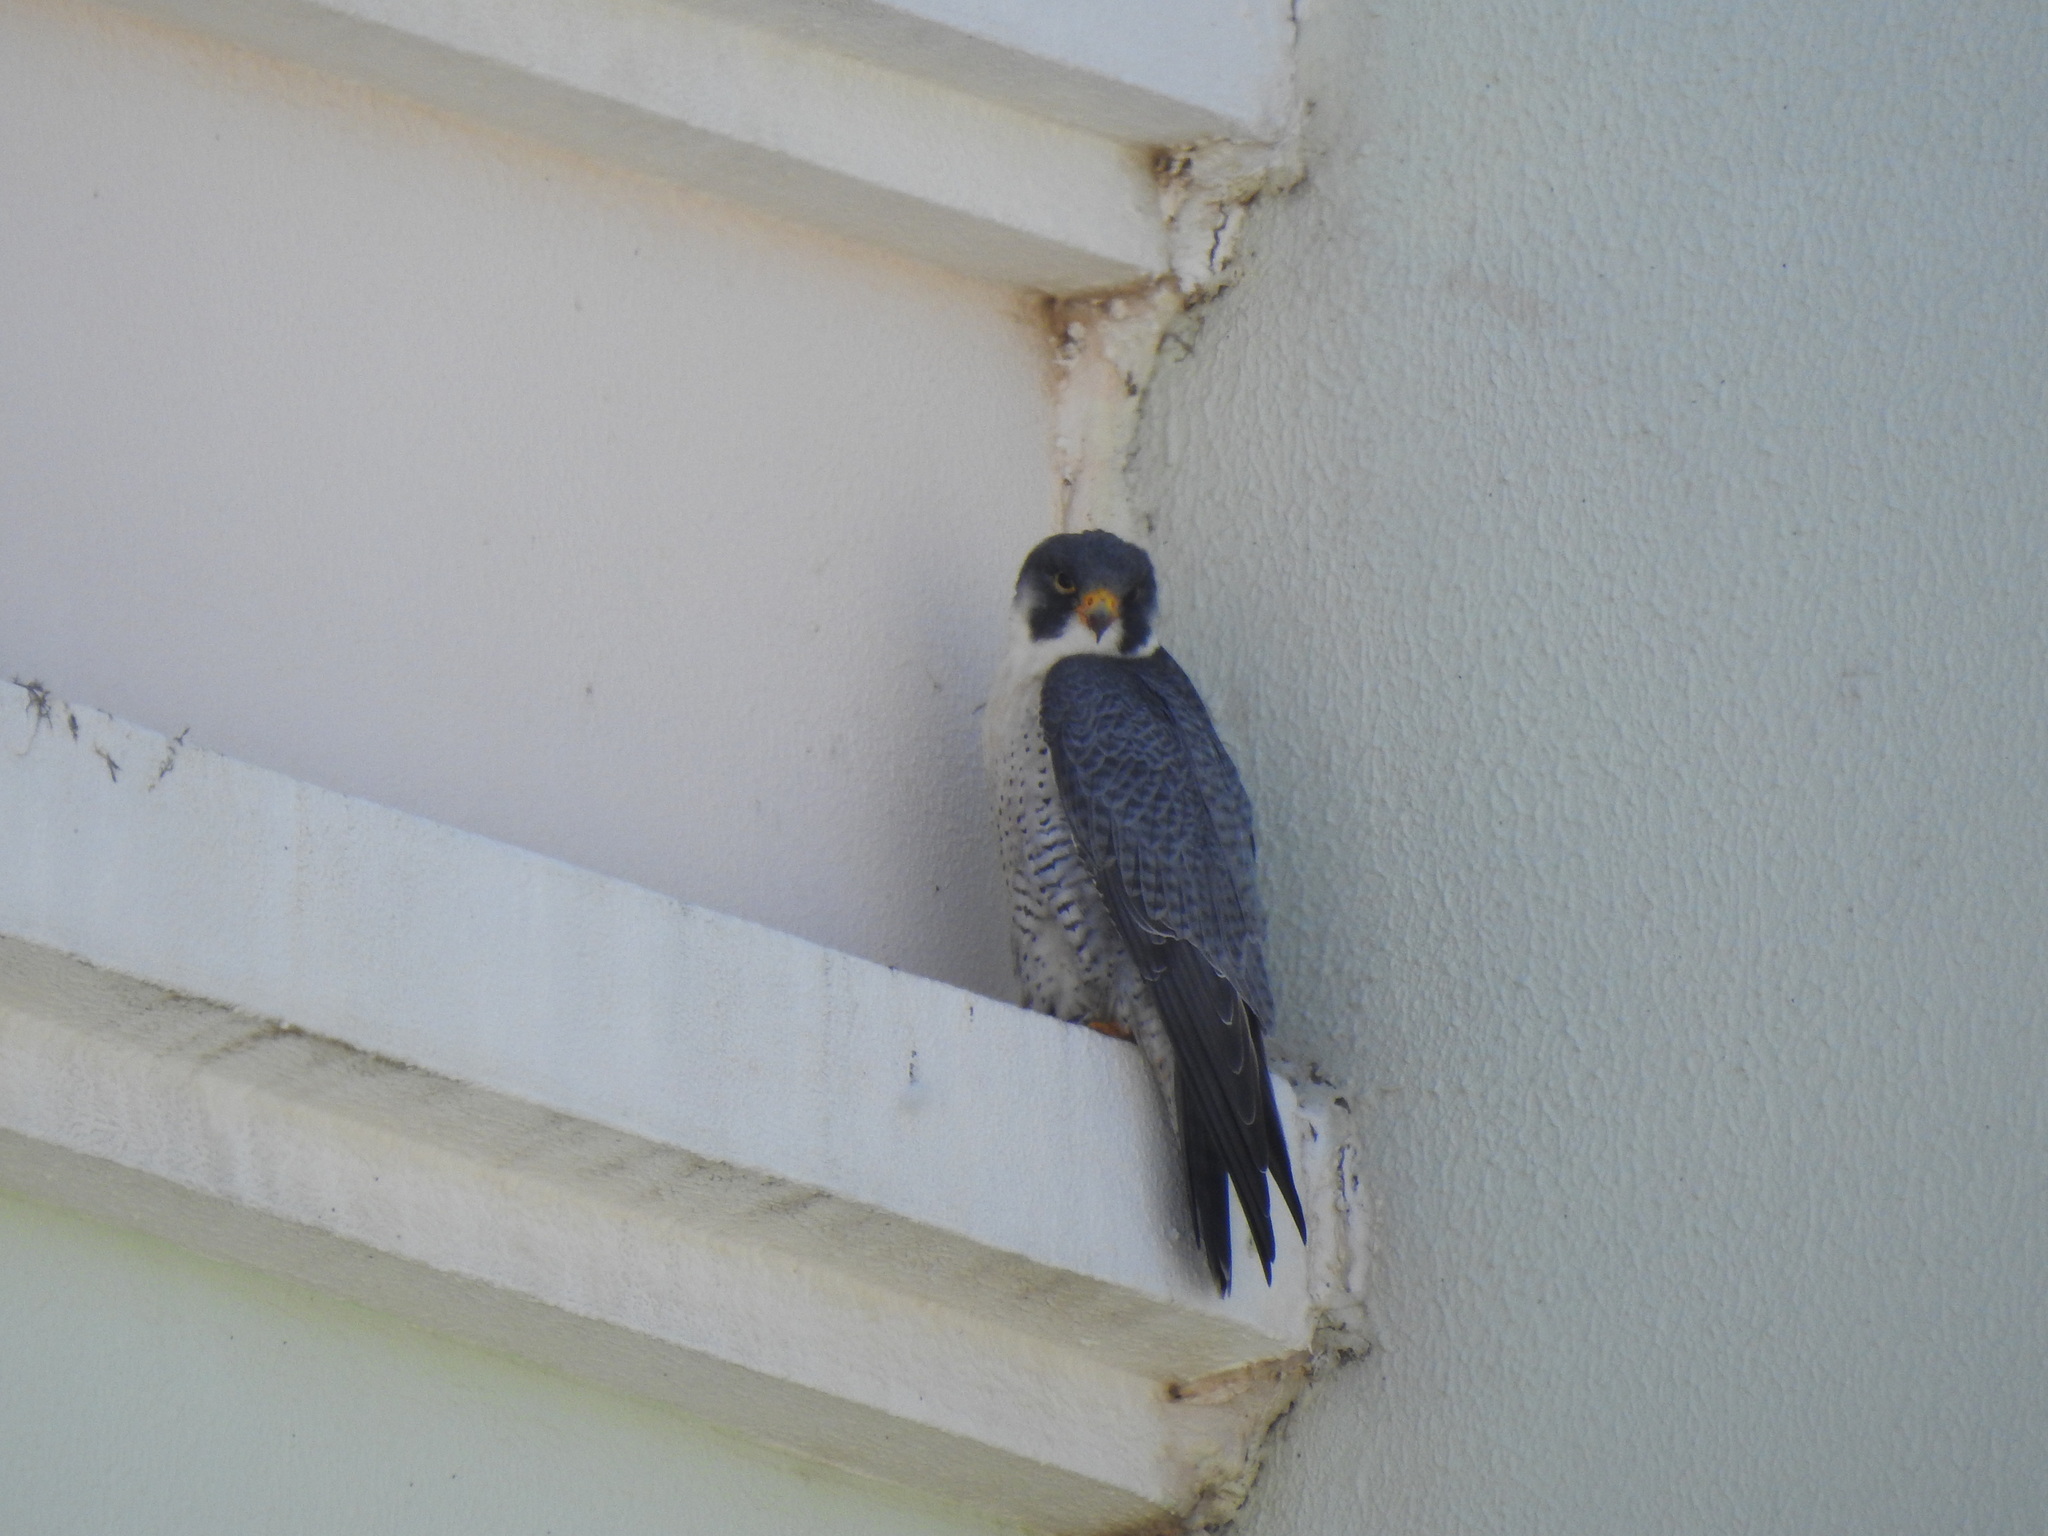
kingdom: Animalia
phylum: Chordata
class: Aves
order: Falconiformes
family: Falconidae
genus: Falco
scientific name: Falco peregrinus
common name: Peregrine falcon
